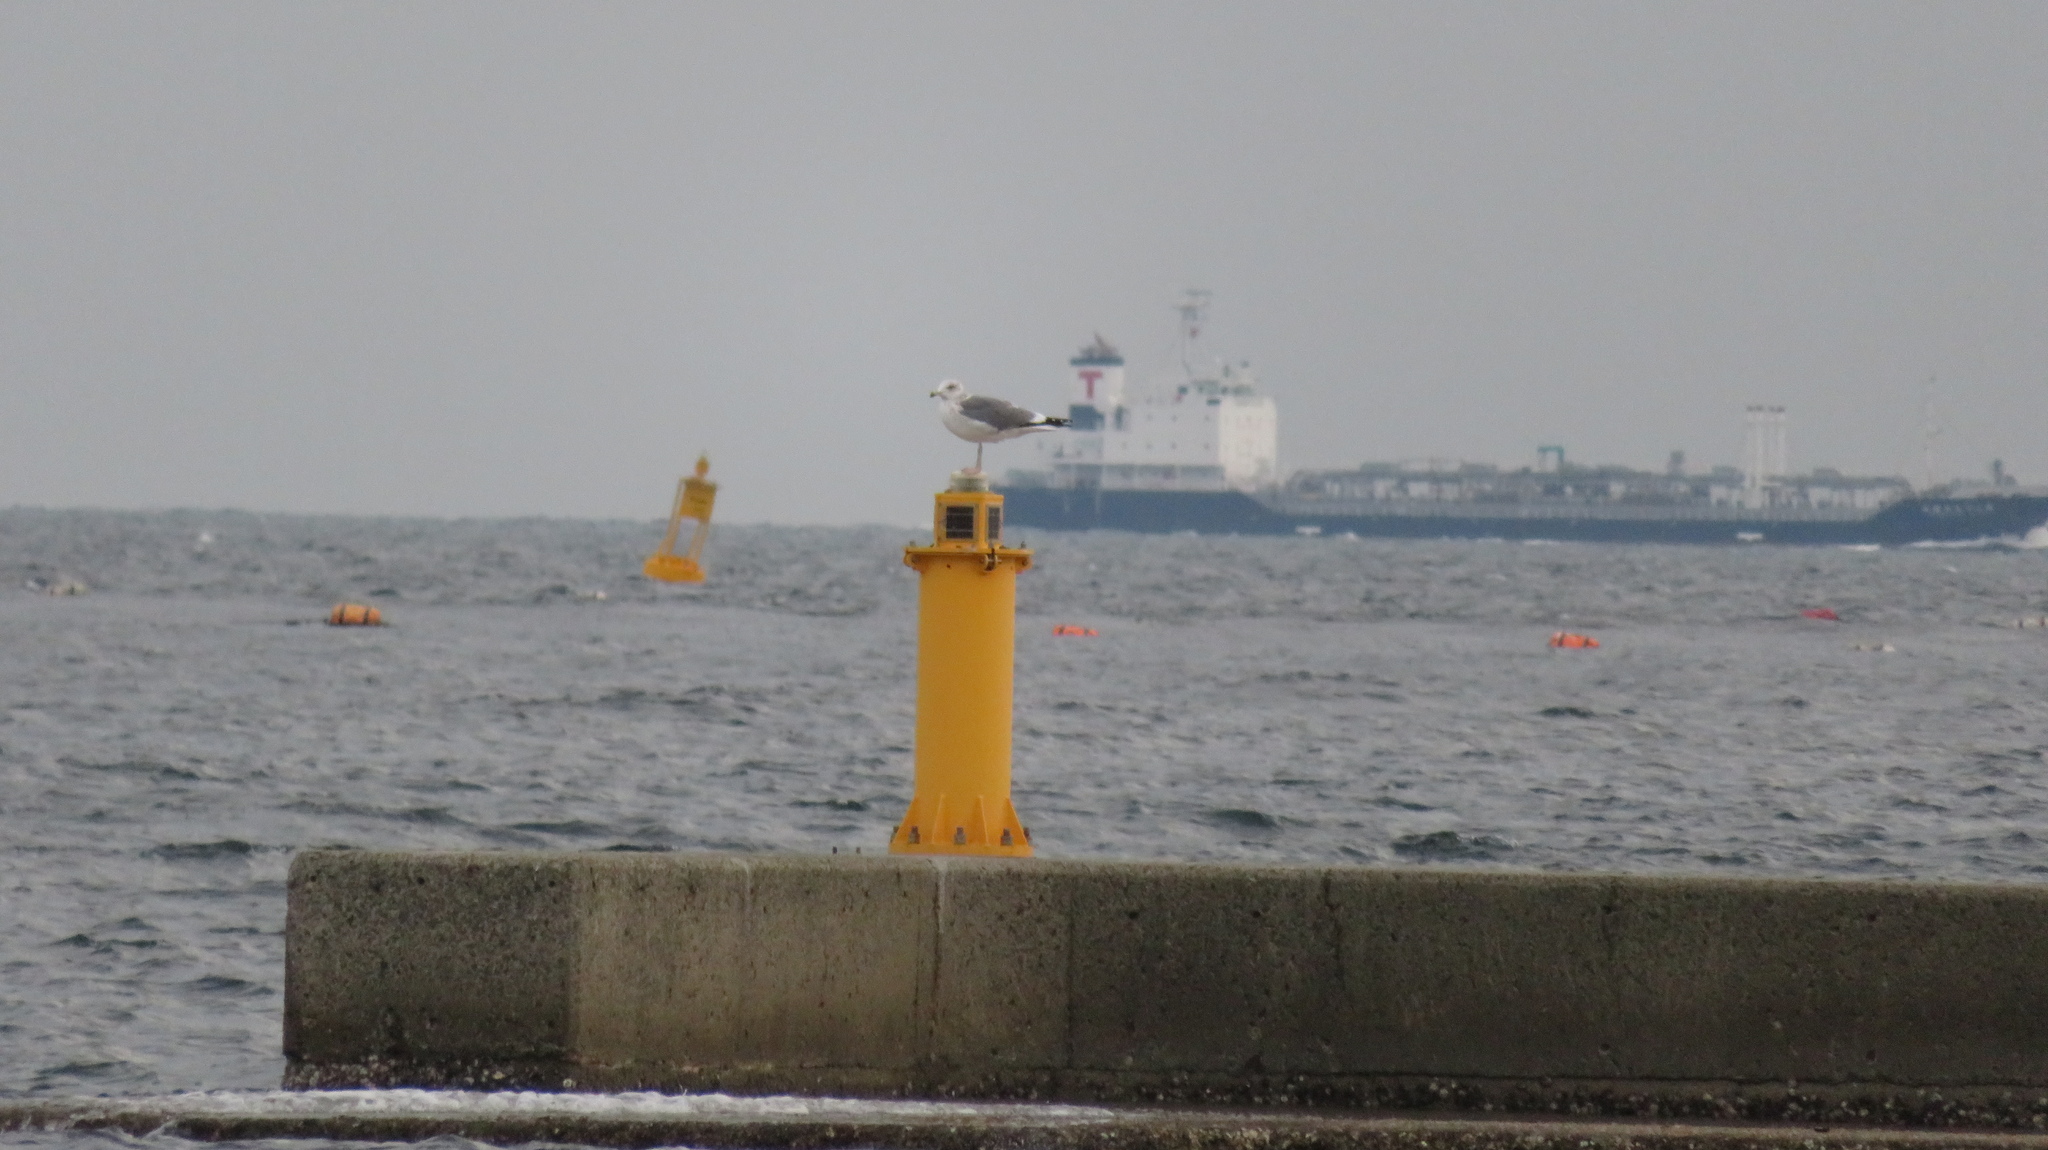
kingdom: Animalia
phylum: Chordata
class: Aves
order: Charadriiformes
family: Laridae
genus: Larus
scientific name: Larus crassirostris
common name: Black-tailed gull
